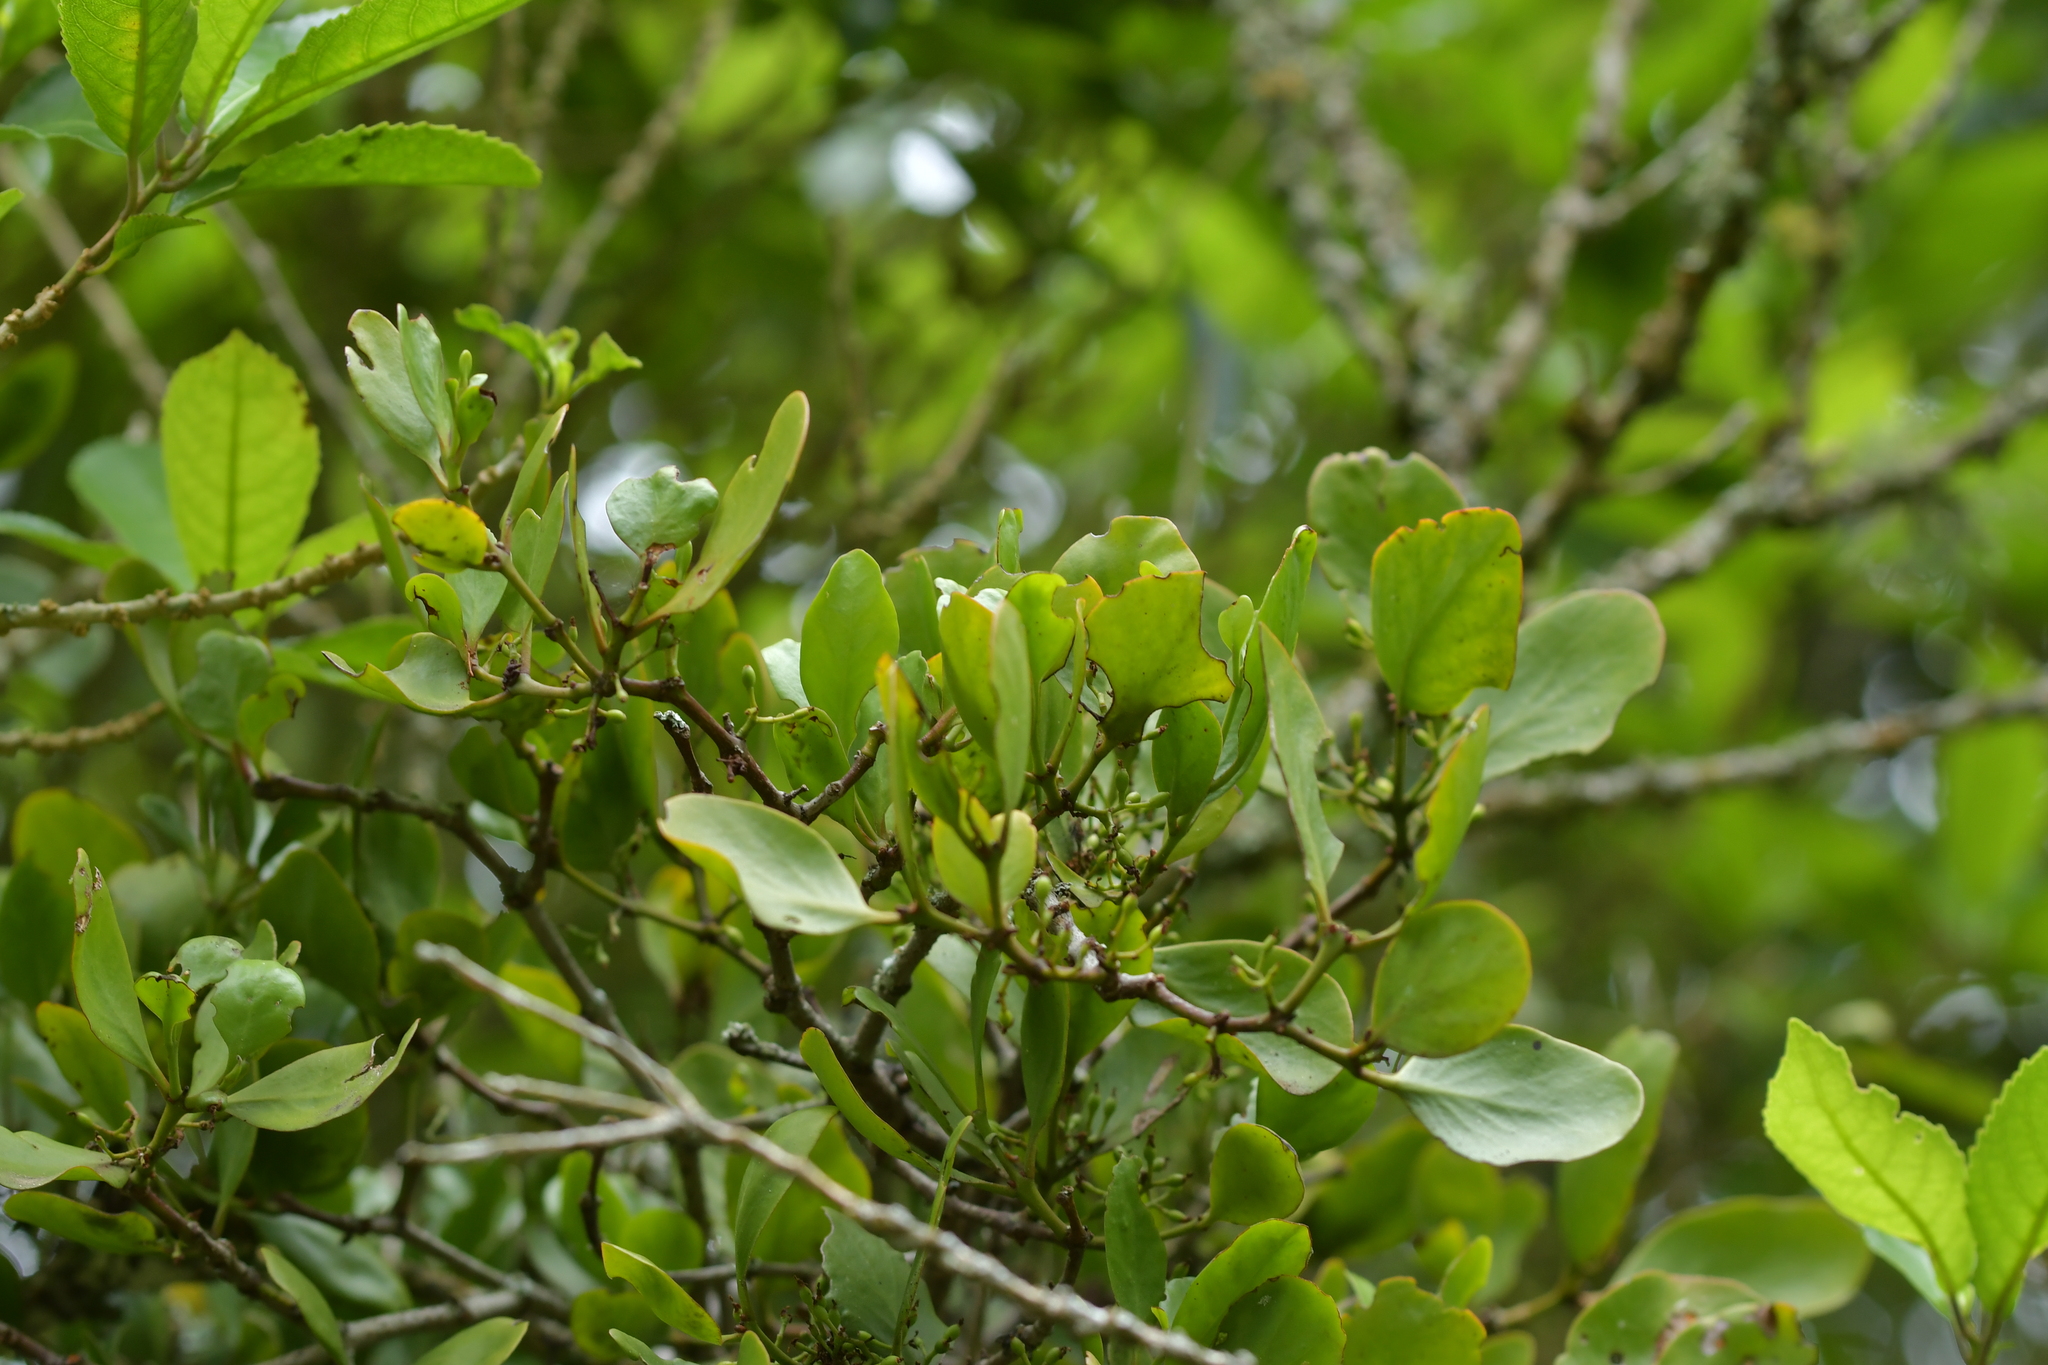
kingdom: Plantae
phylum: Tracheophyta
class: Magnoliopsida
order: Santalales
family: Loranthaceae
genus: Ileostylus
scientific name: Ileostylus micranthus
